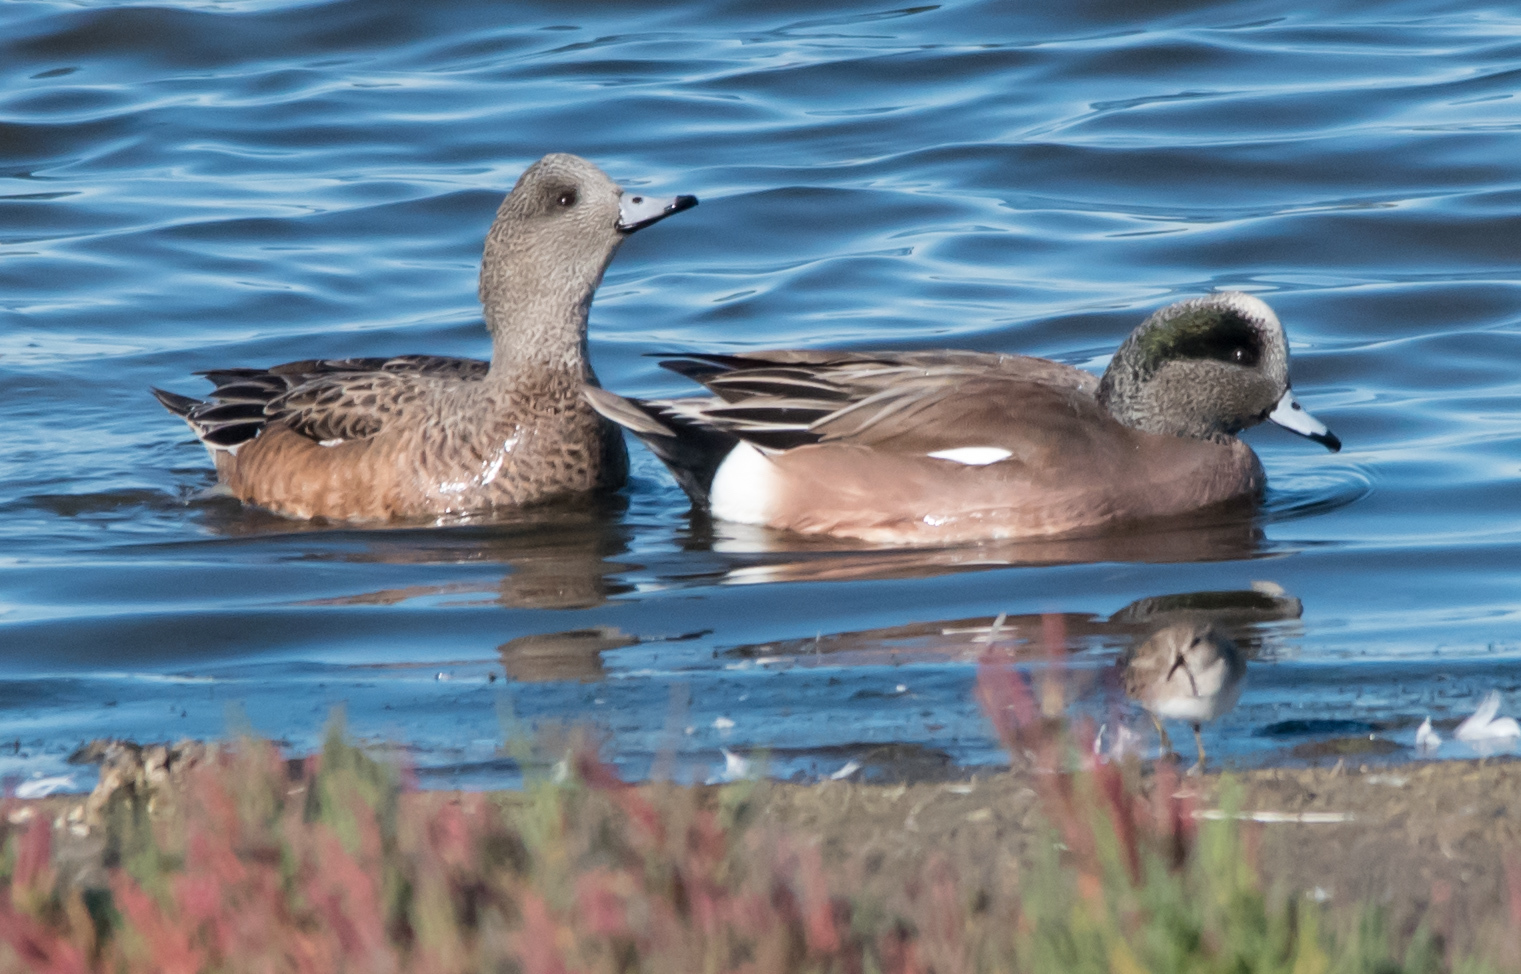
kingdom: Animalia
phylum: Chordata
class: Aves
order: Anseriformes
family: Anatidae
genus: Mareca
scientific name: Mareca americana
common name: American wigeon
